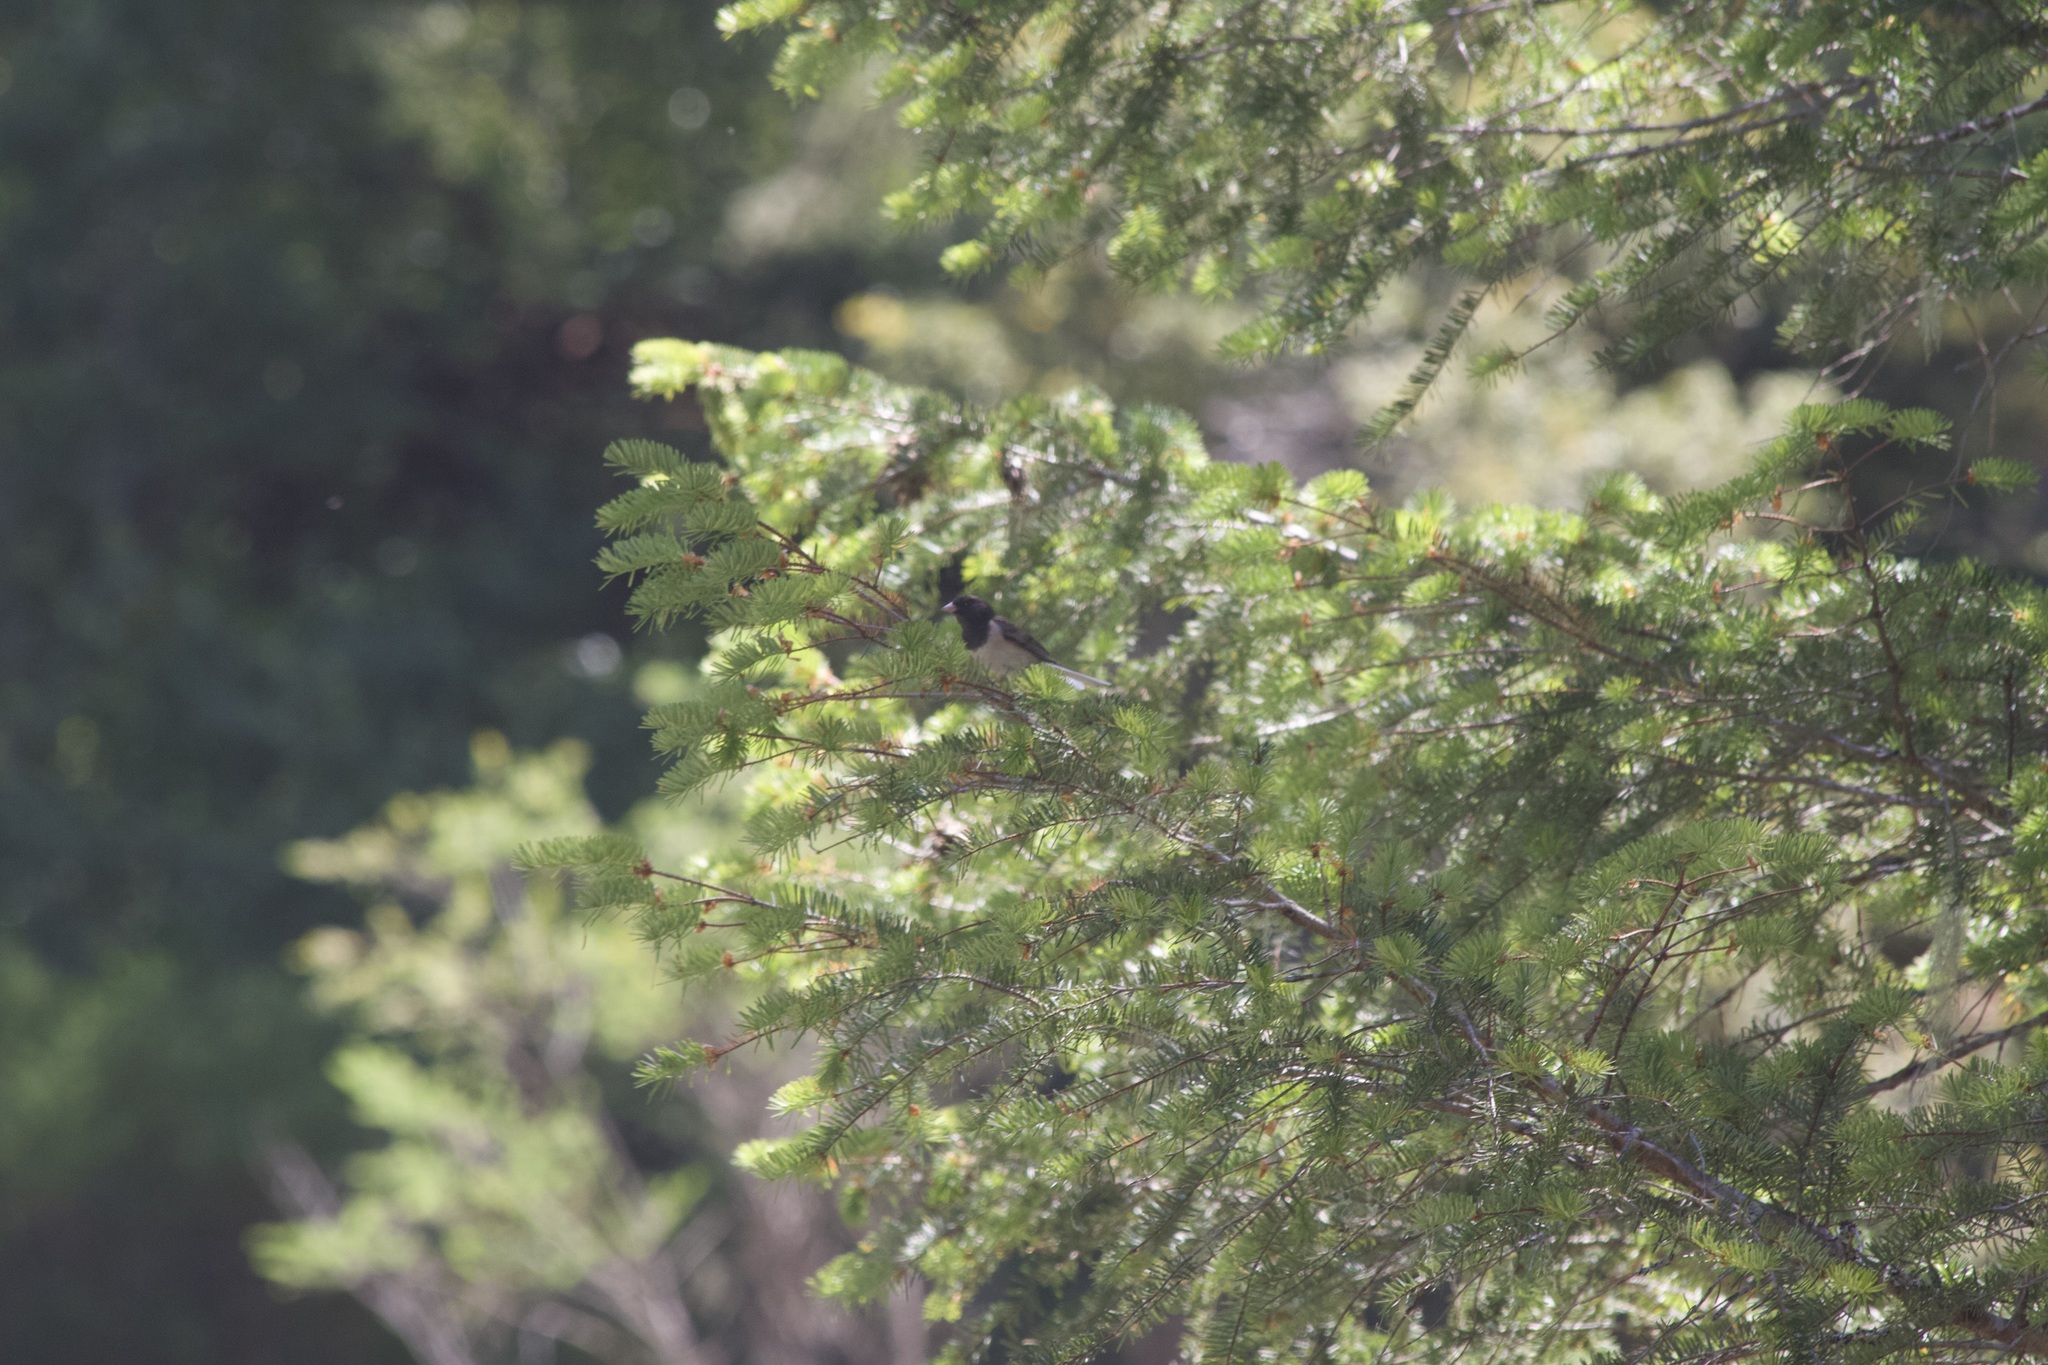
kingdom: Animalia
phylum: Chordata
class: Aves
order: Passeriformes
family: Passerellidae
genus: Junco
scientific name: Junco hyemalis
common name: Dark-eyed junco
